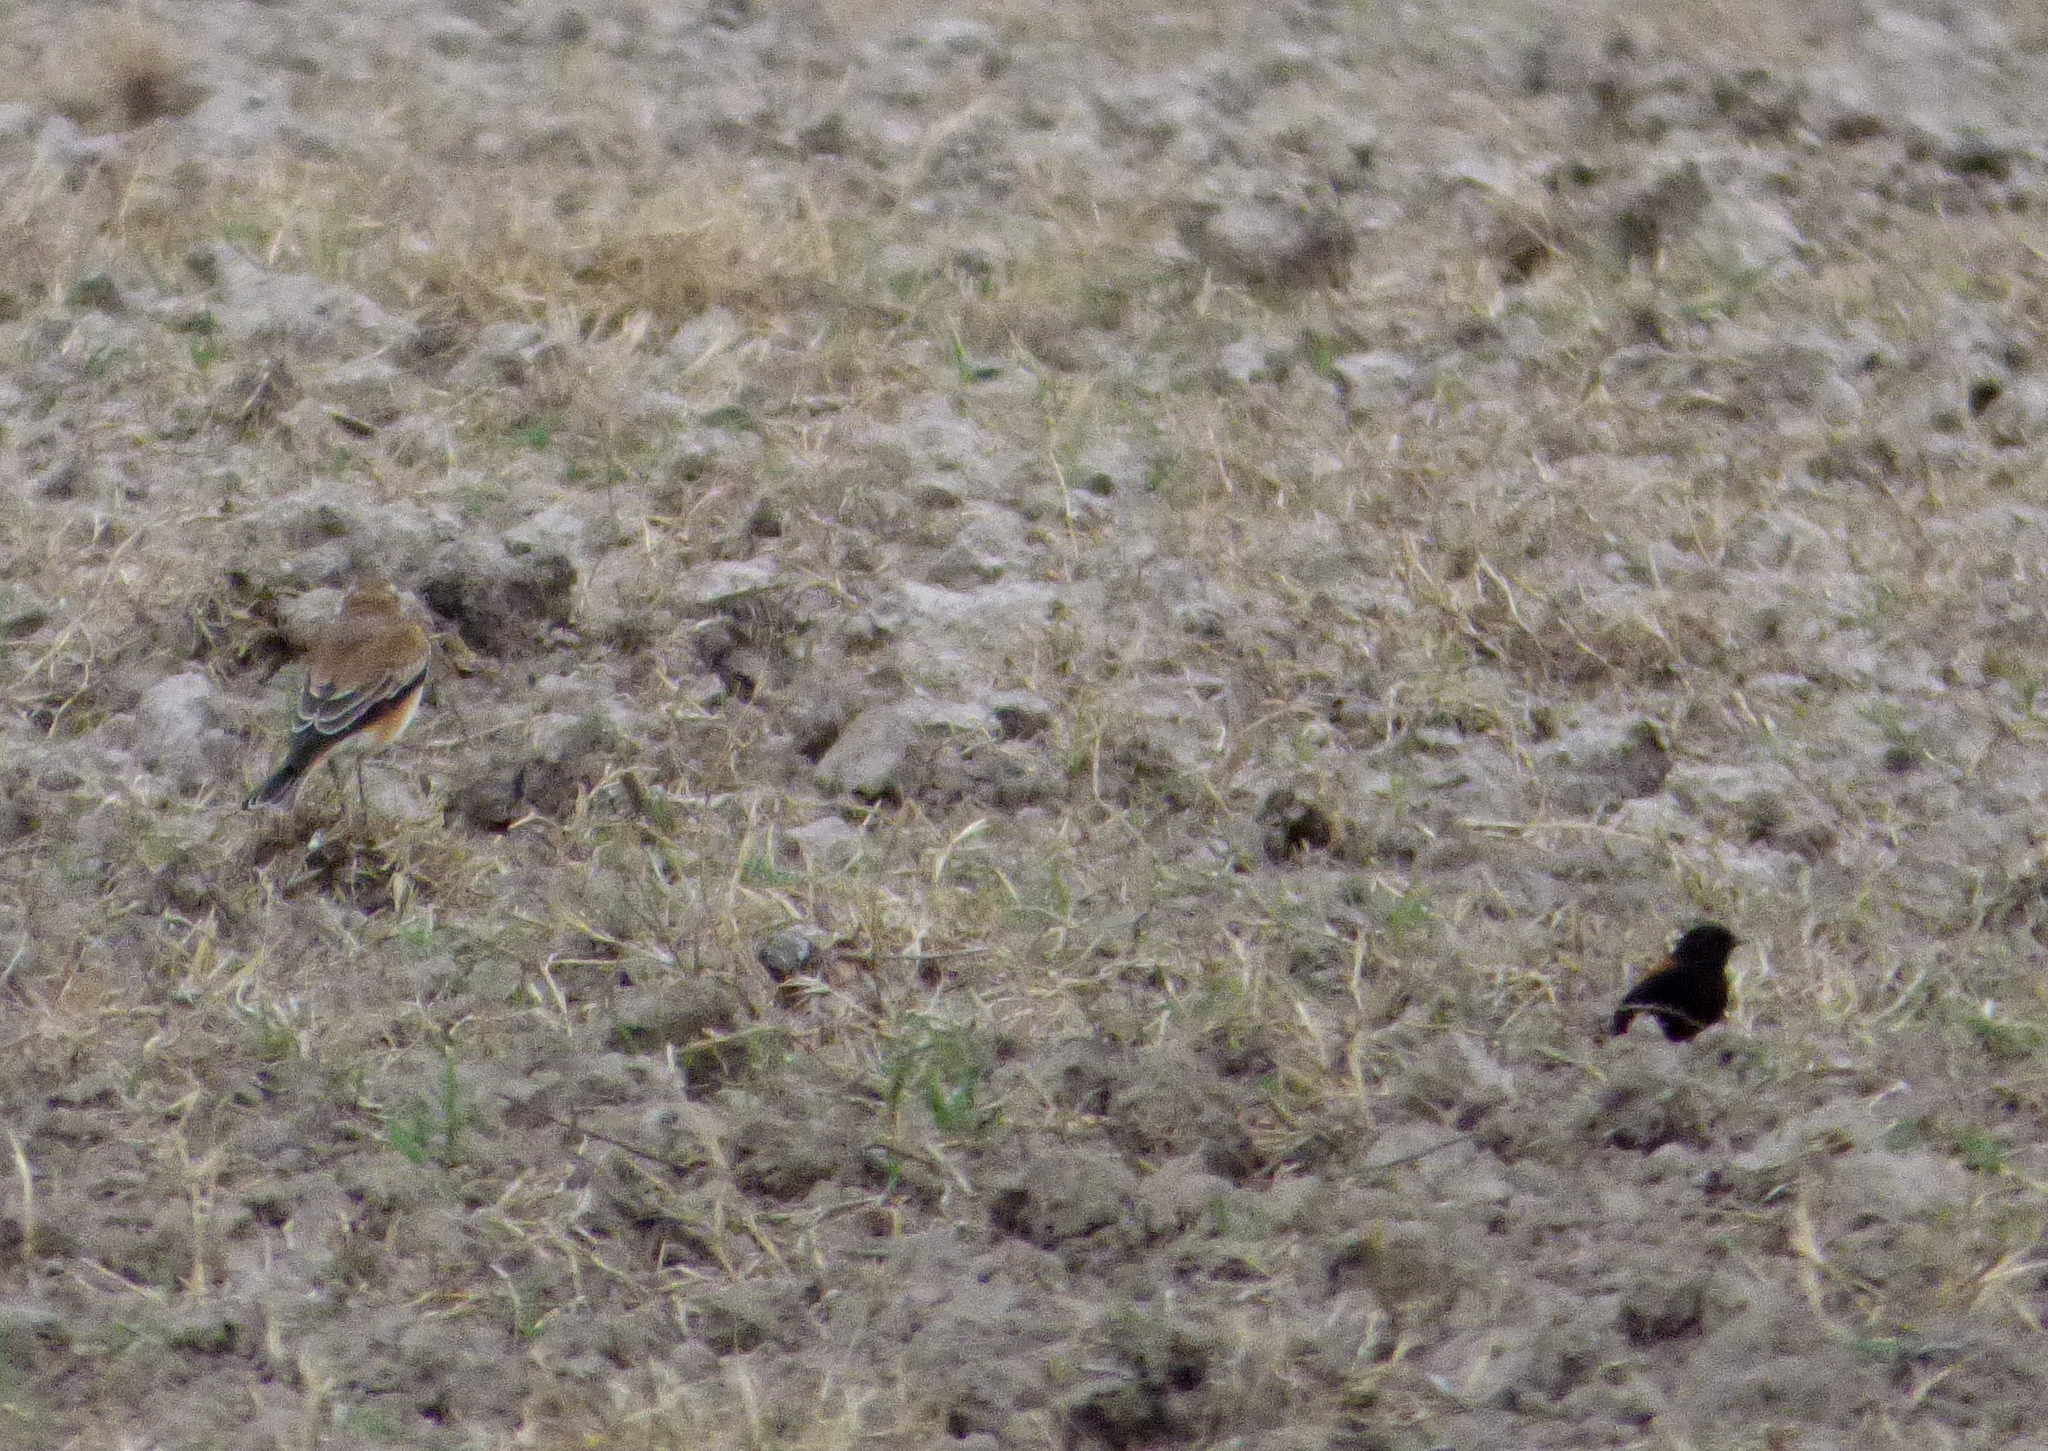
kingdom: Animalia
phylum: Chordata
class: Aves
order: Passeriformes
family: Tyrannidae
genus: Lessonia
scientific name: Lessonia rufa
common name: Austral negrito
